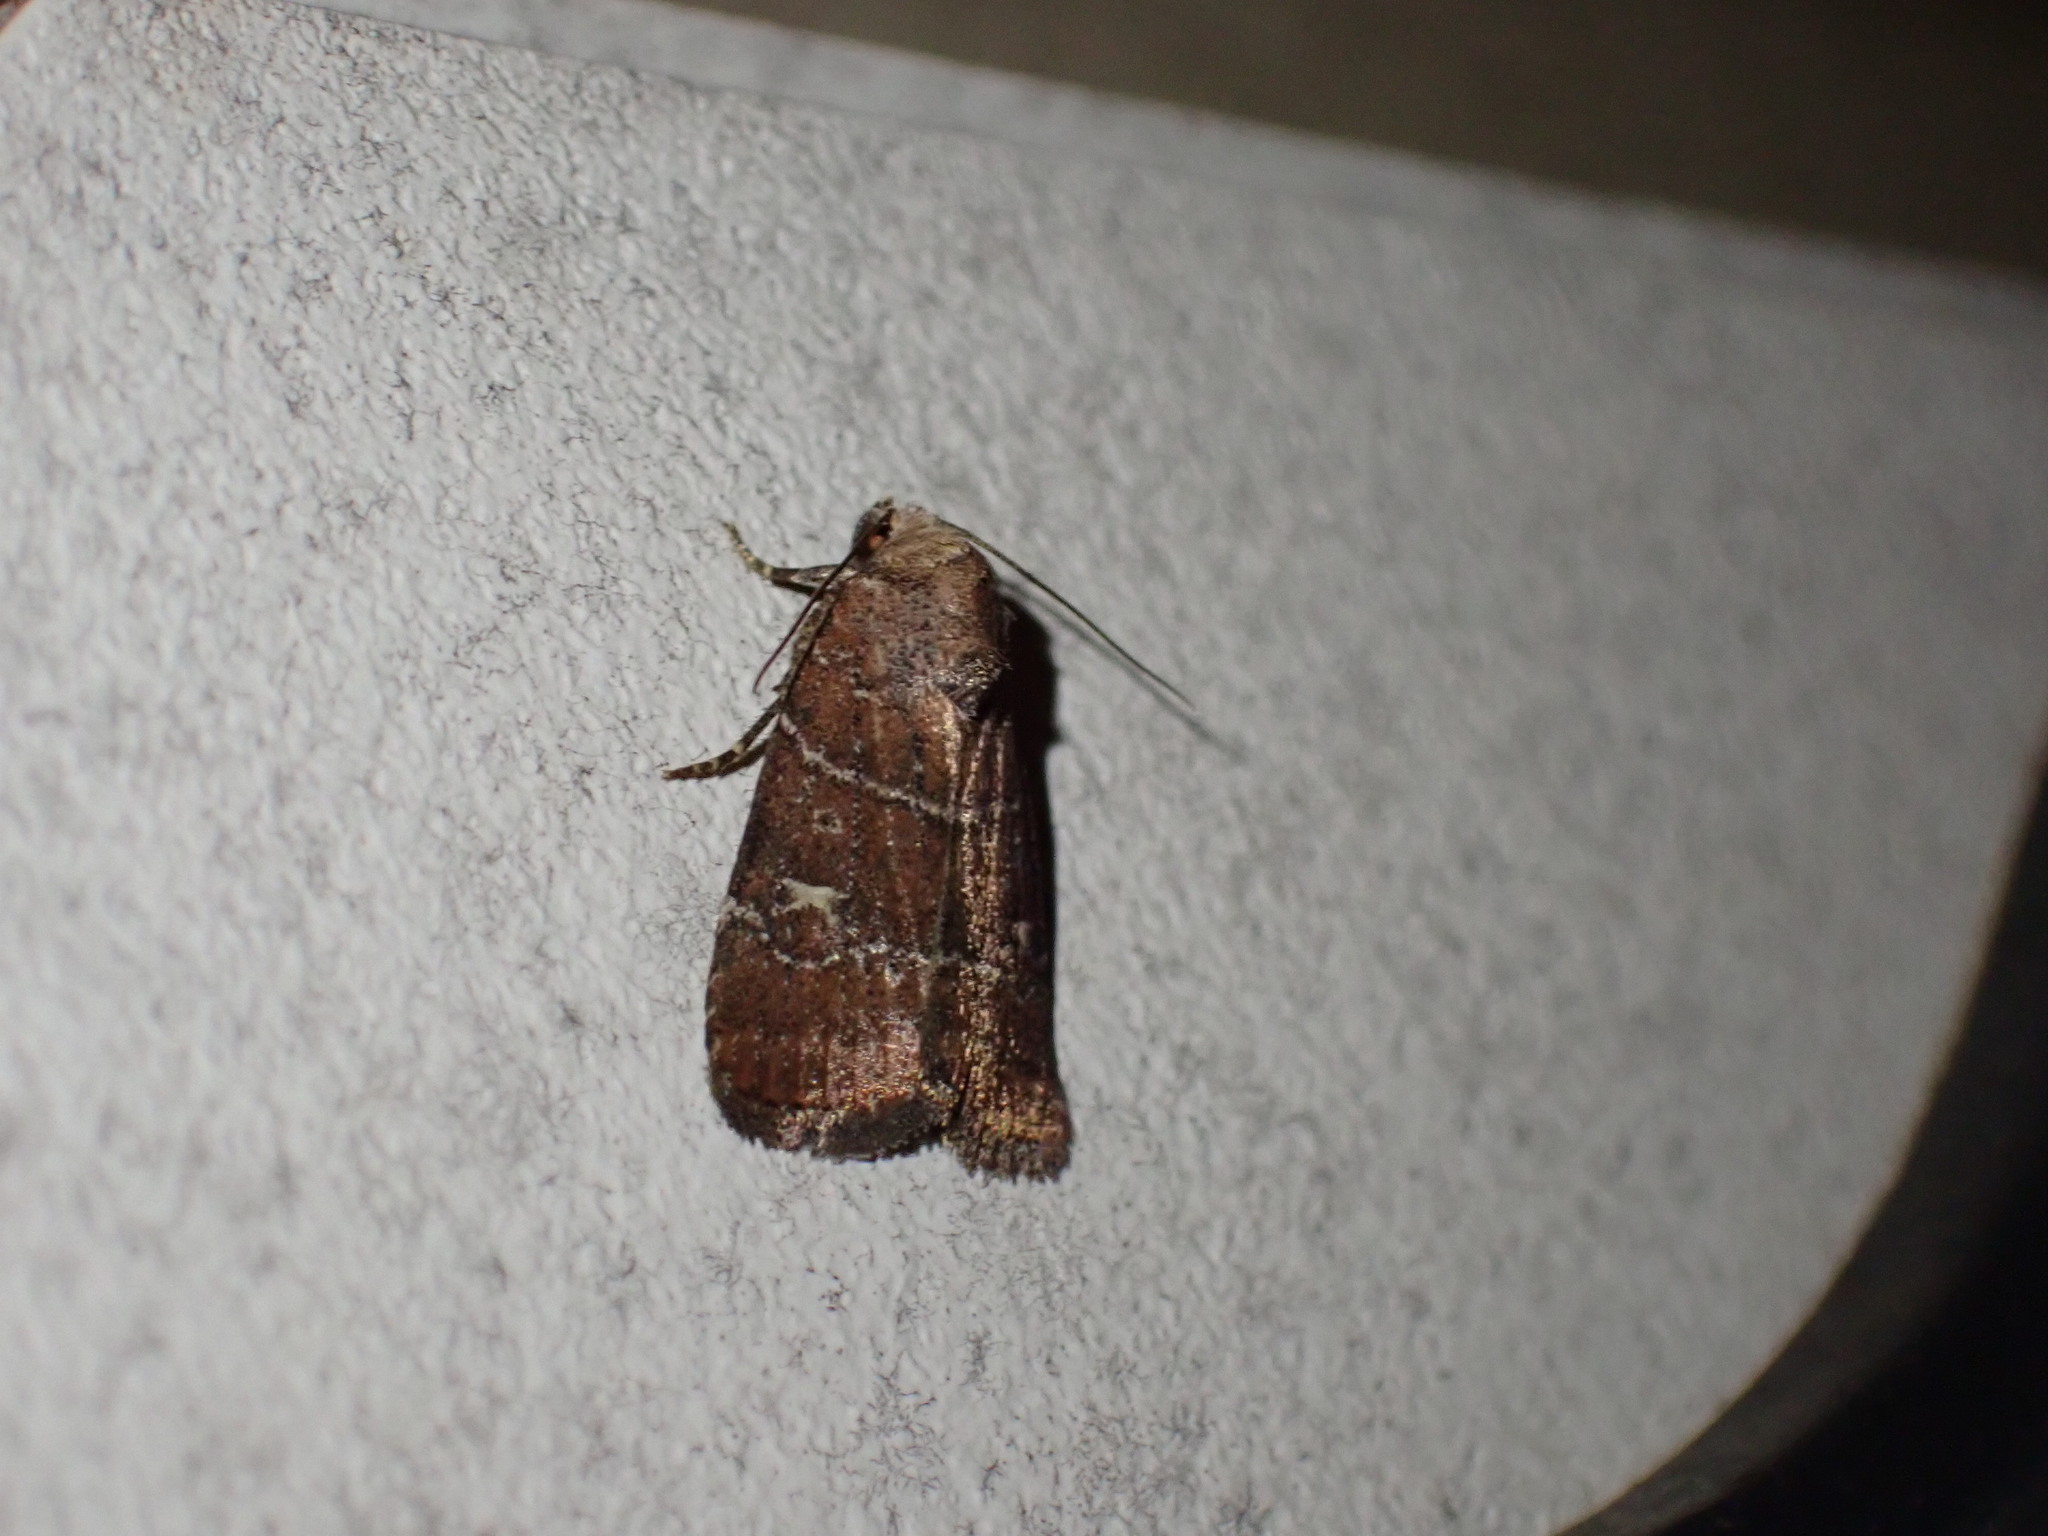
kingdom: Animalia
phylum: Arthropoda
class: Insecta
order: Lepidoptera
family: Noctuidae
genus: Elaphria
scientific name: Elaphria grata
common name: Grateful midget moth
